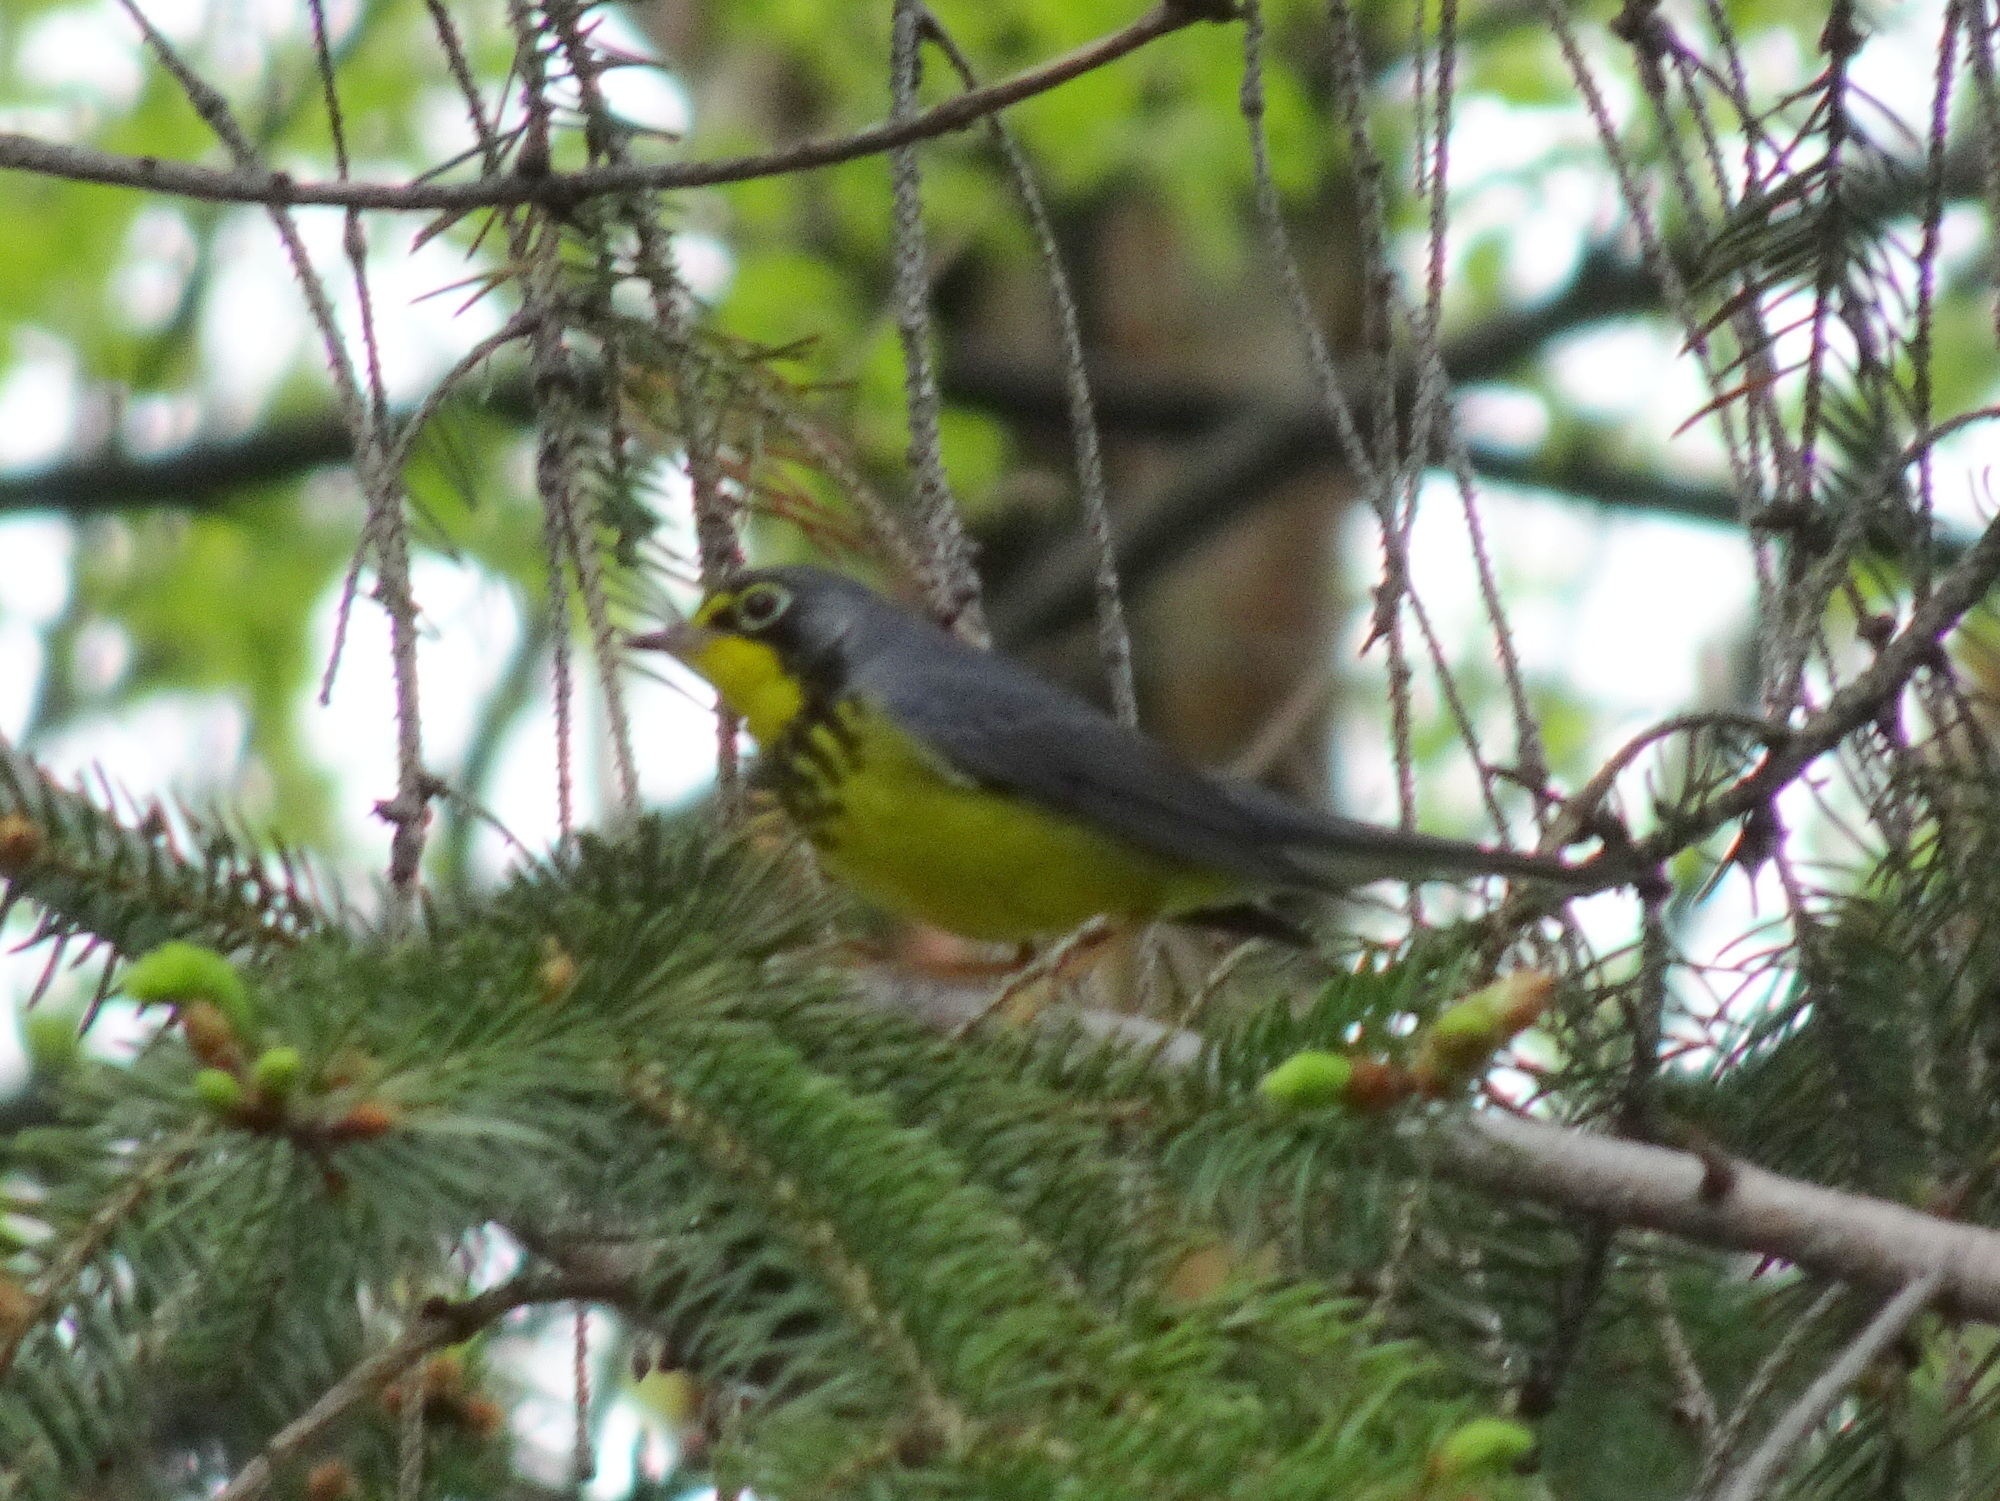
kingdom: Animalia
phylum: Chordata
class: Aves
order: Passeriformes
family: Parulidae
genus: Cardellina
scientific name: Cardellina canadensis
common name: Canada warbler
